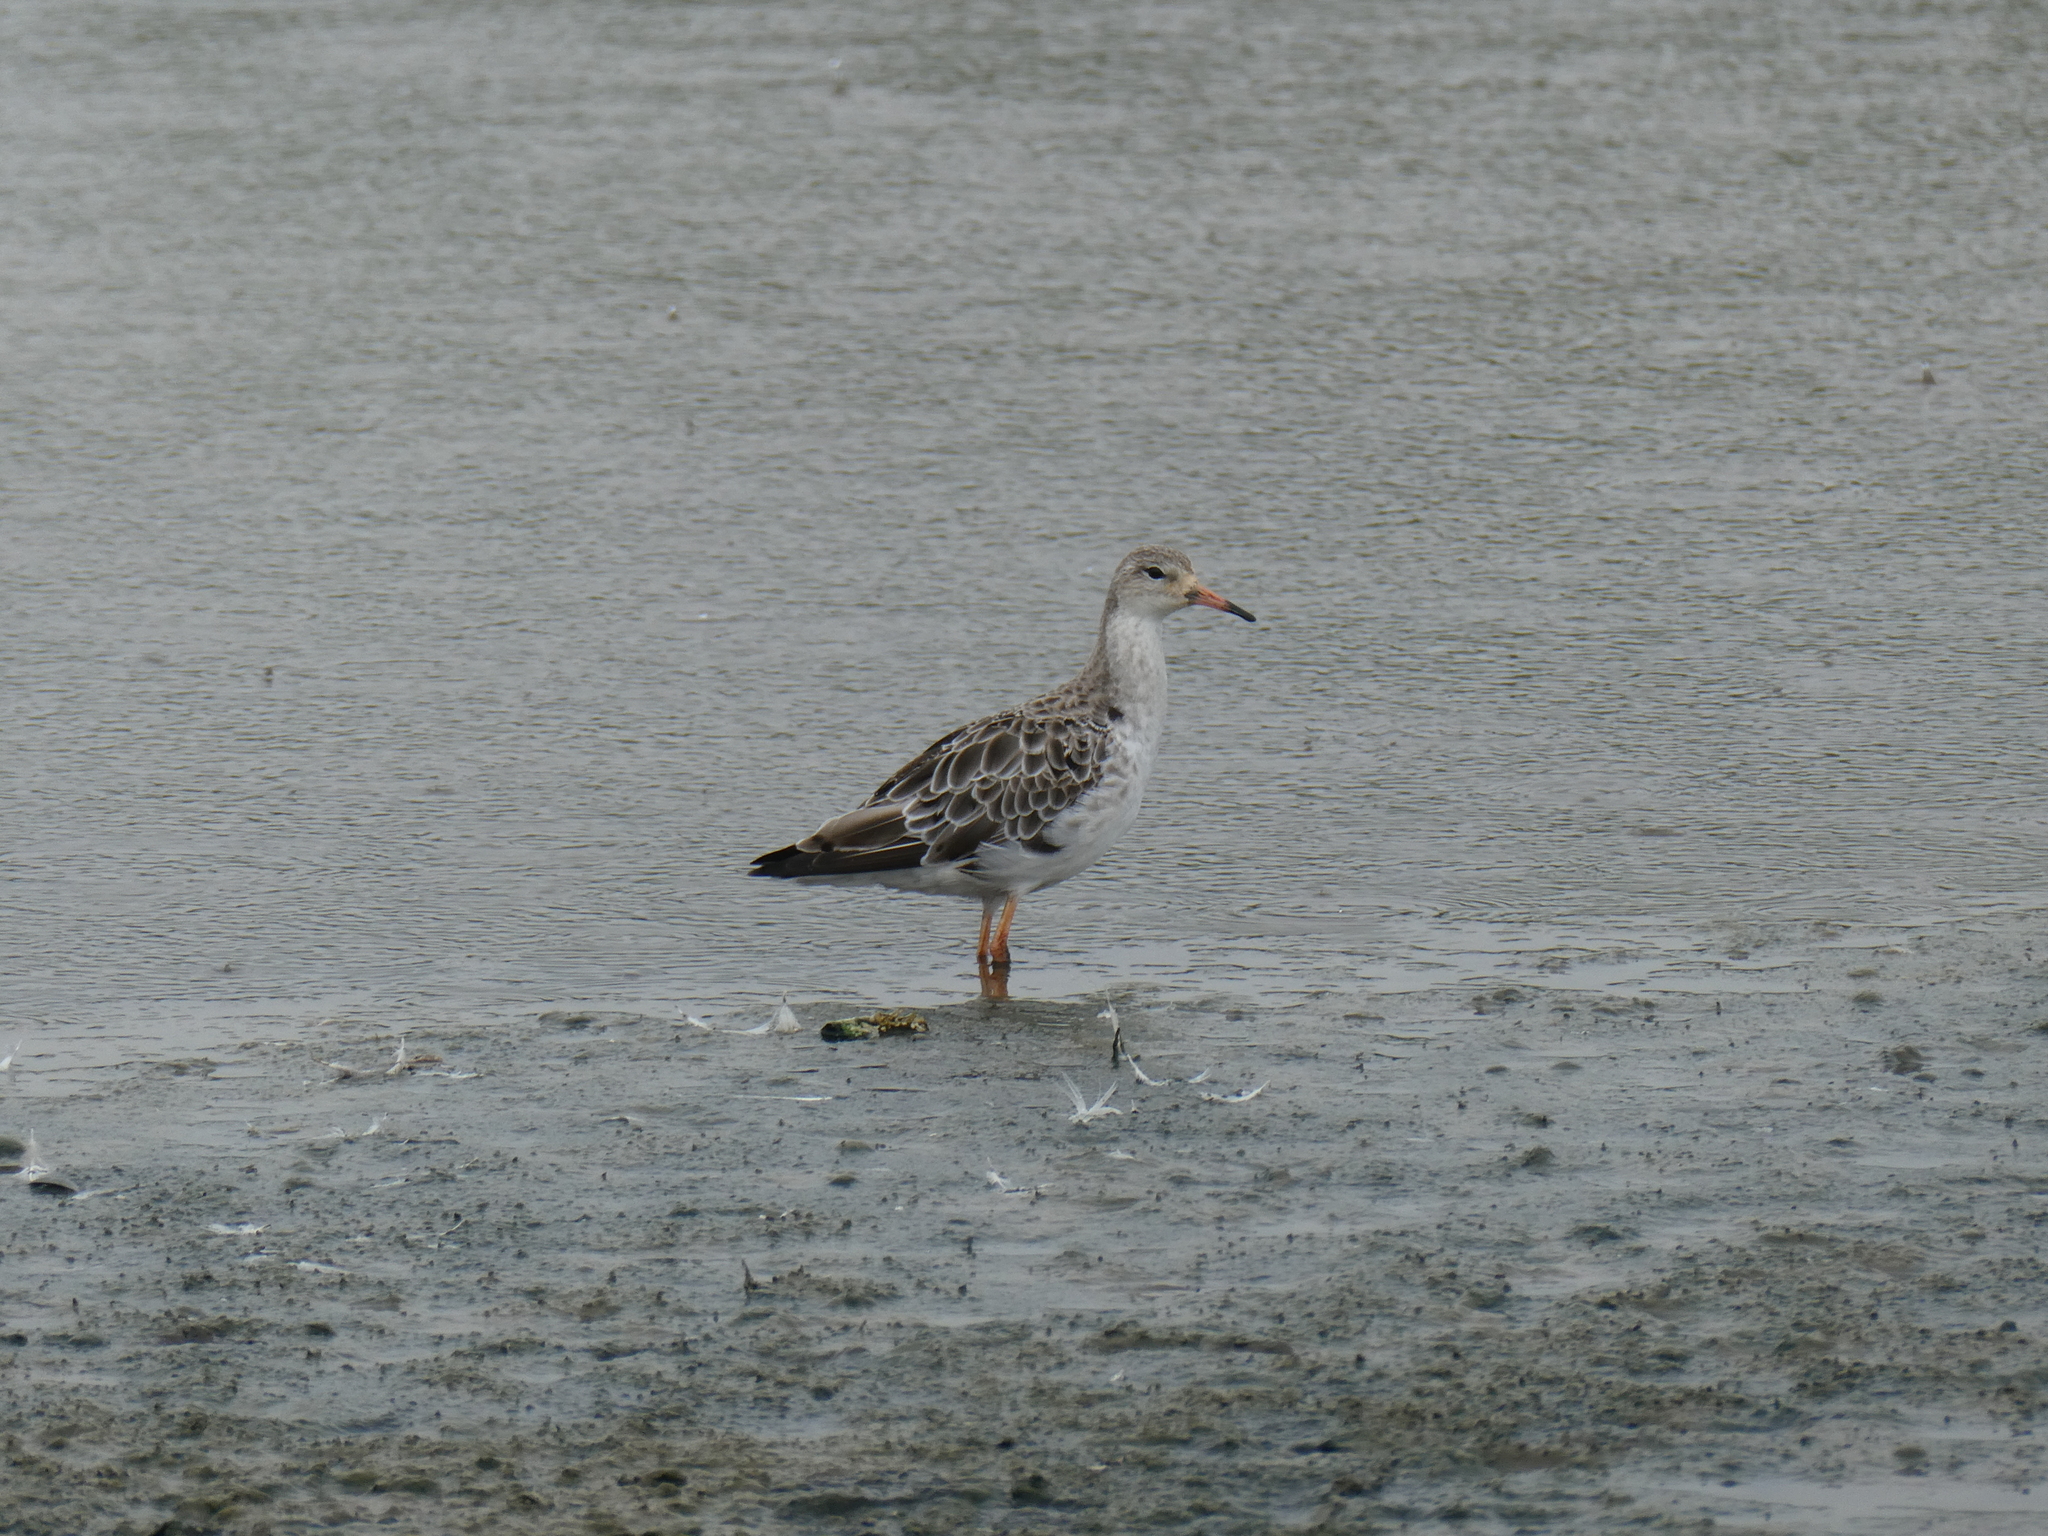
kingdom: Animalia
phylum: Chordata
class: Aves
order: Charadriiformes
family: Scolopacidae
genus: Calidris
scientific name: Calidris pugnax
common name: Ruff
